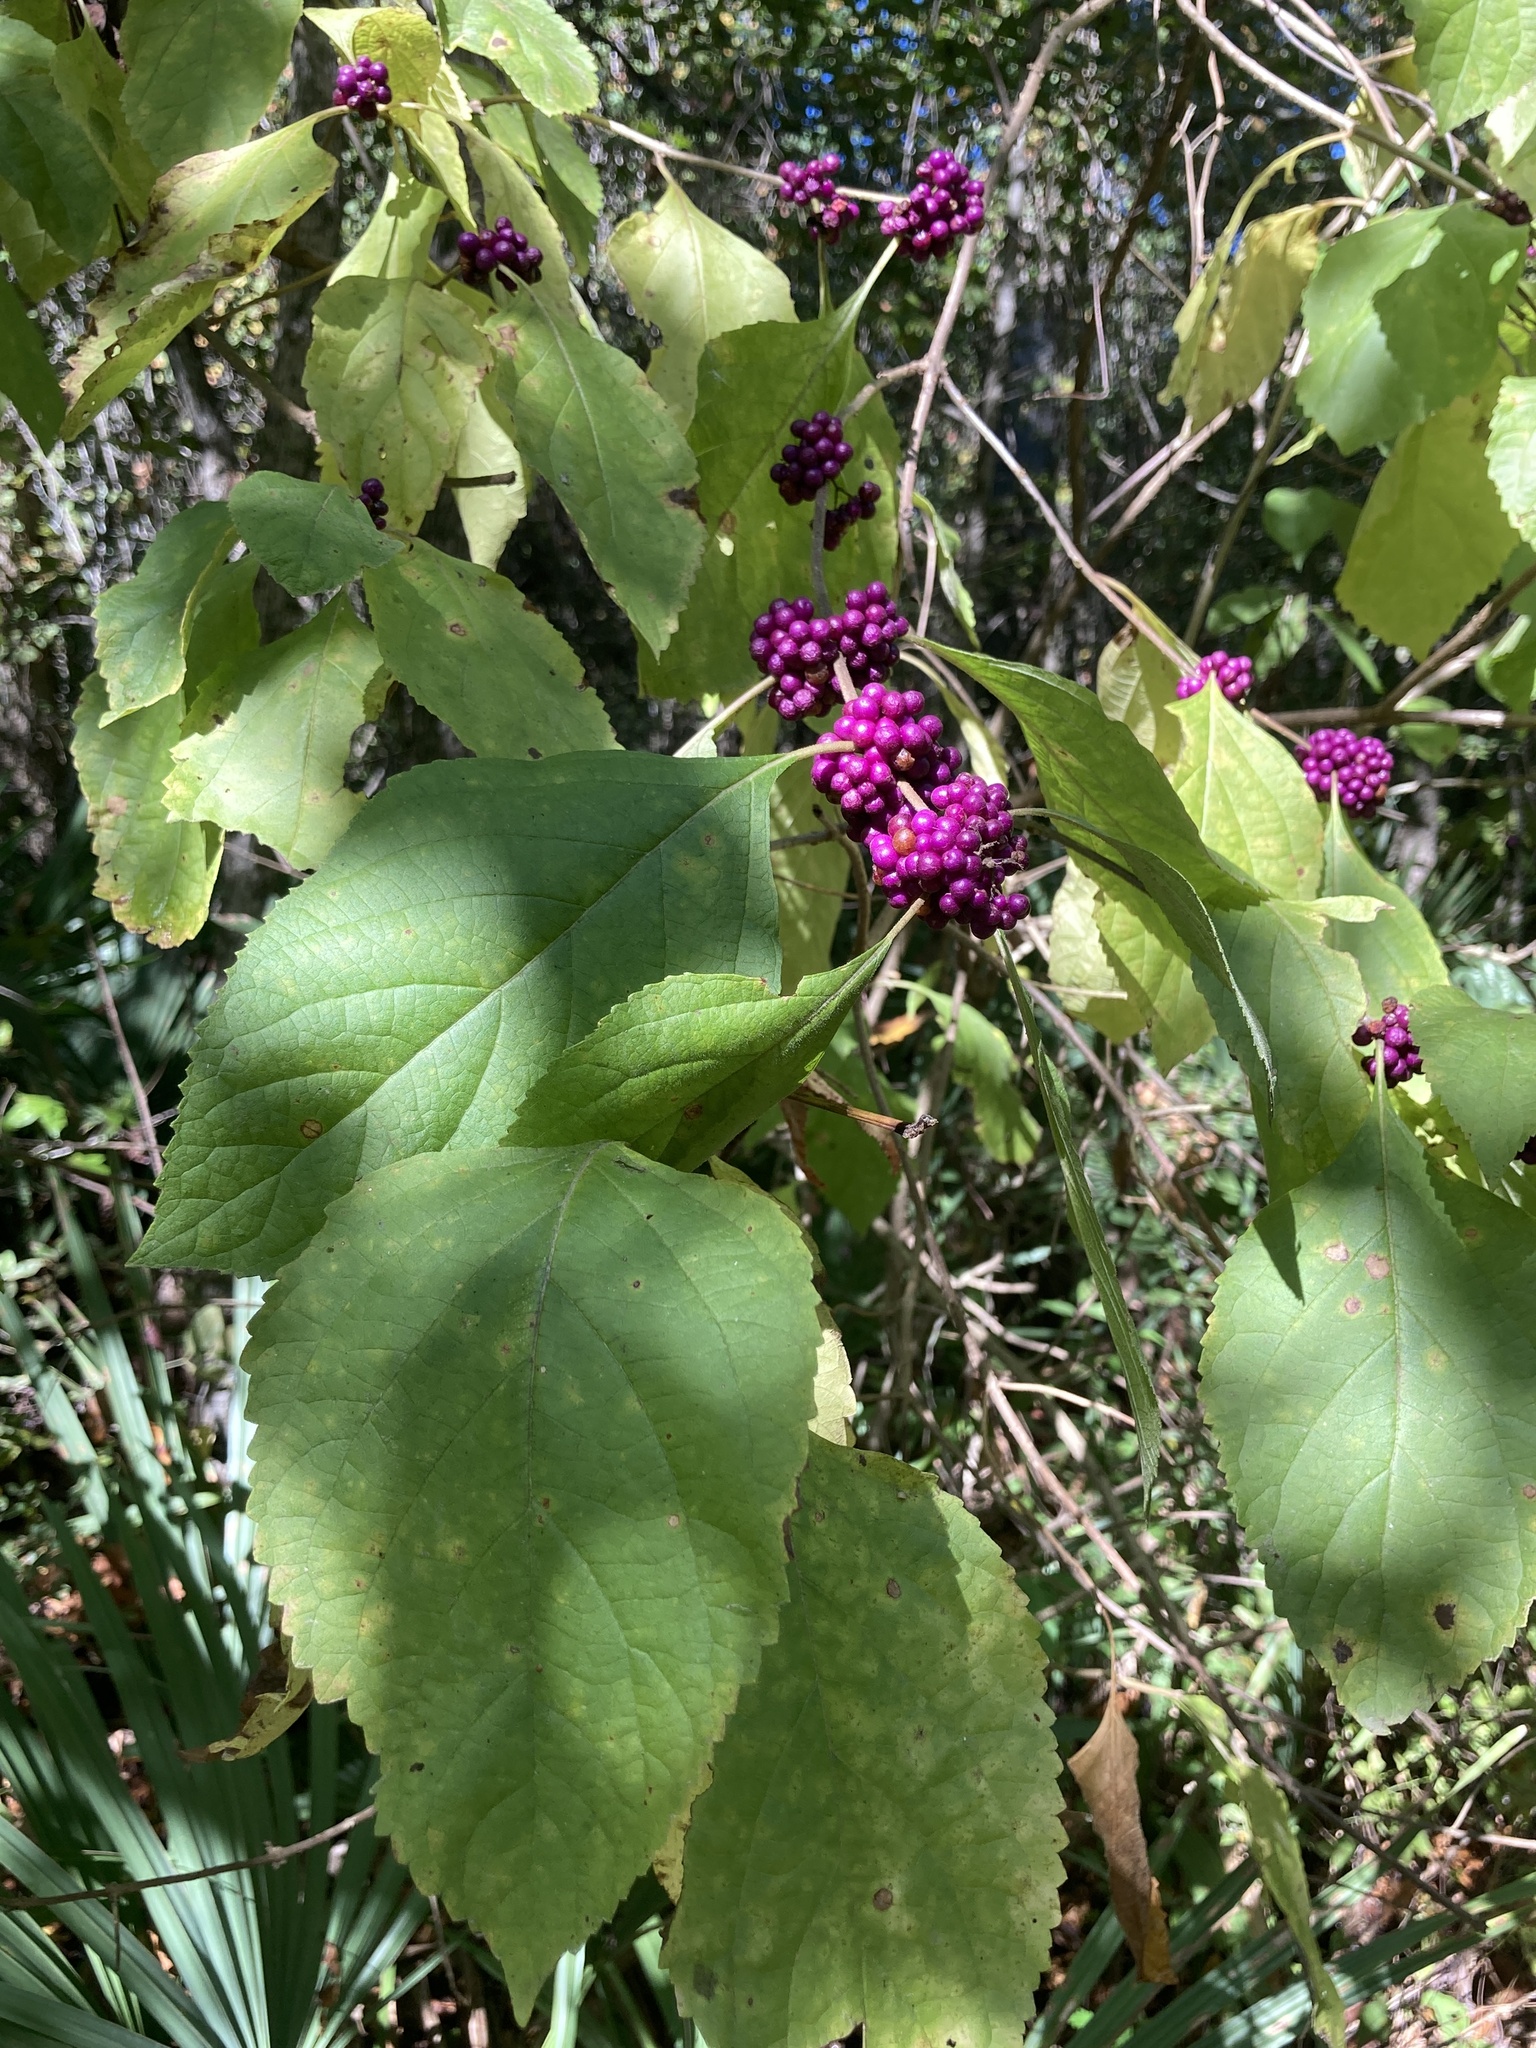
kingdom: Plantae
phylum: Tracheophyta
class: Magnoliopsida
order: Lamiales
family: Lamiaceae
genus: Callicarpa
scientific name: Callicarpa americana
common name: American beautyberry
